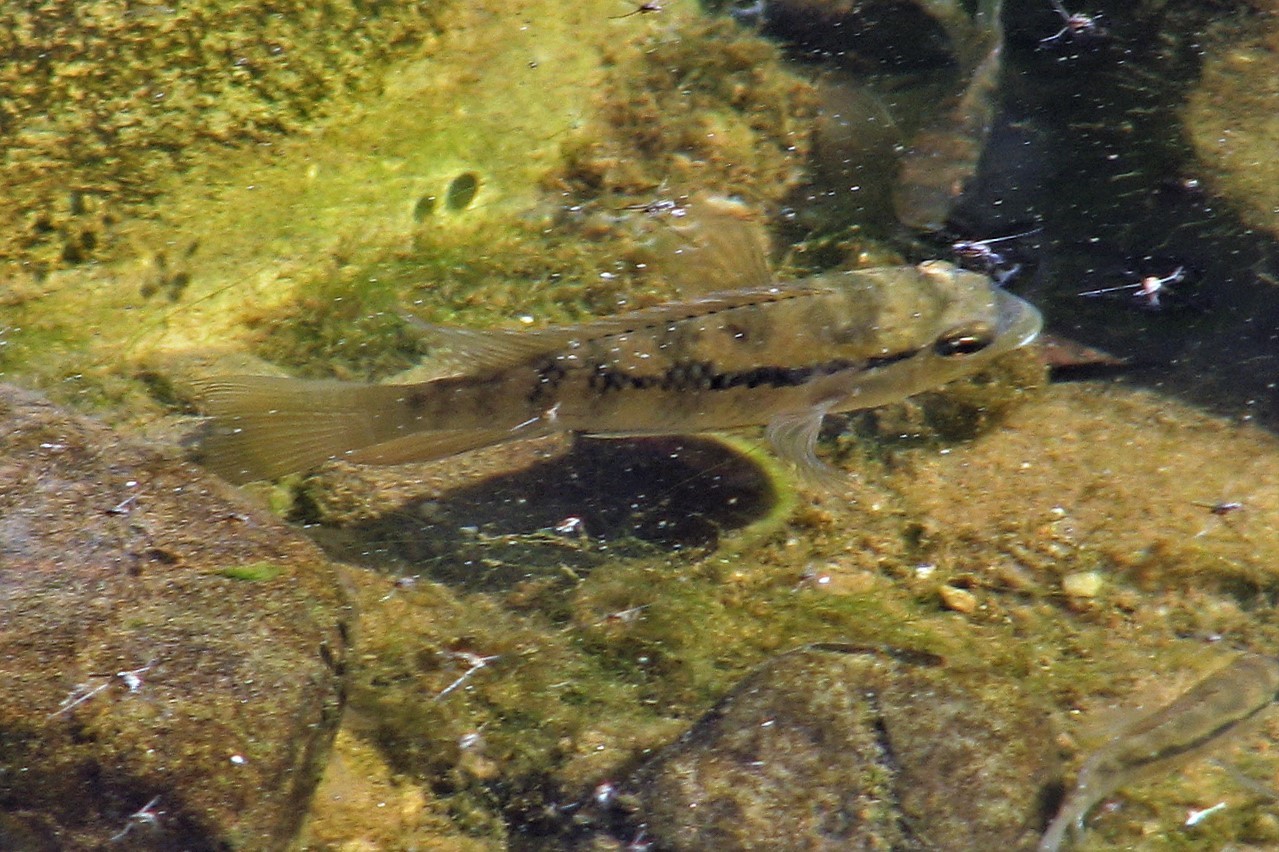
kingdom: Animalia
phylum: Chordata
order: Perciformes
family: Cichlidae
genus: Bujurquina
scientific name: Bujurquina vittata
